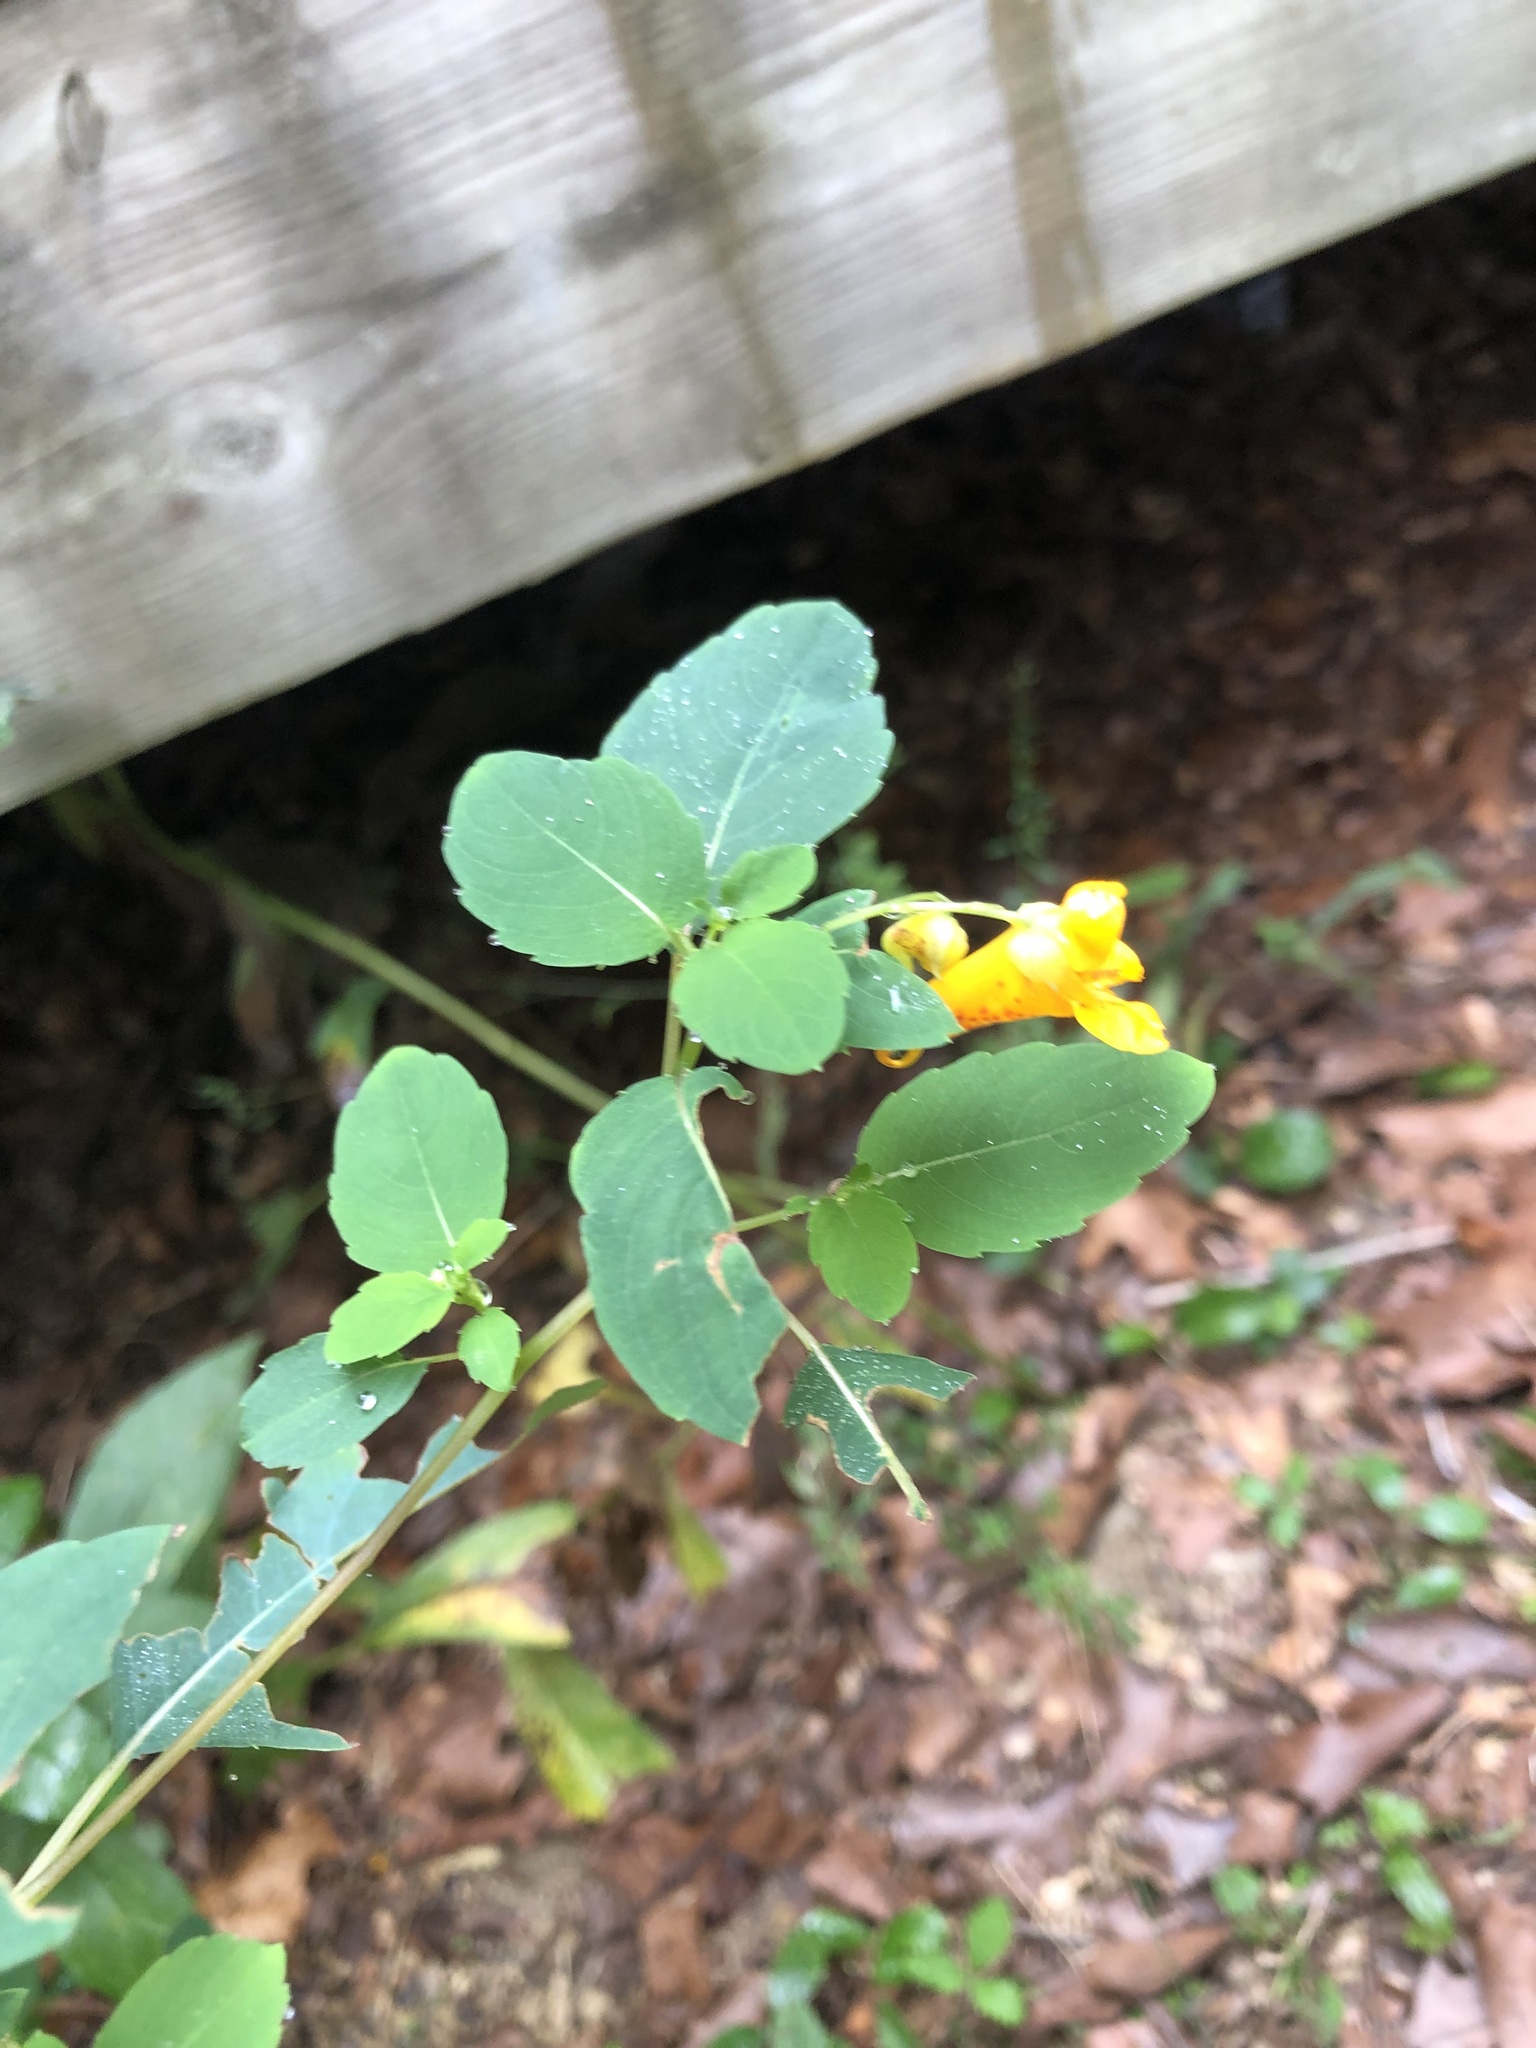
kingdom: Plantae
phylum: Tracheophyta
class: Magnoliopsida
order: Ericales
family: Balsaminaceae
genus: Impatiens
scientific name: Impatiens capensis
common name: Orange balsam
